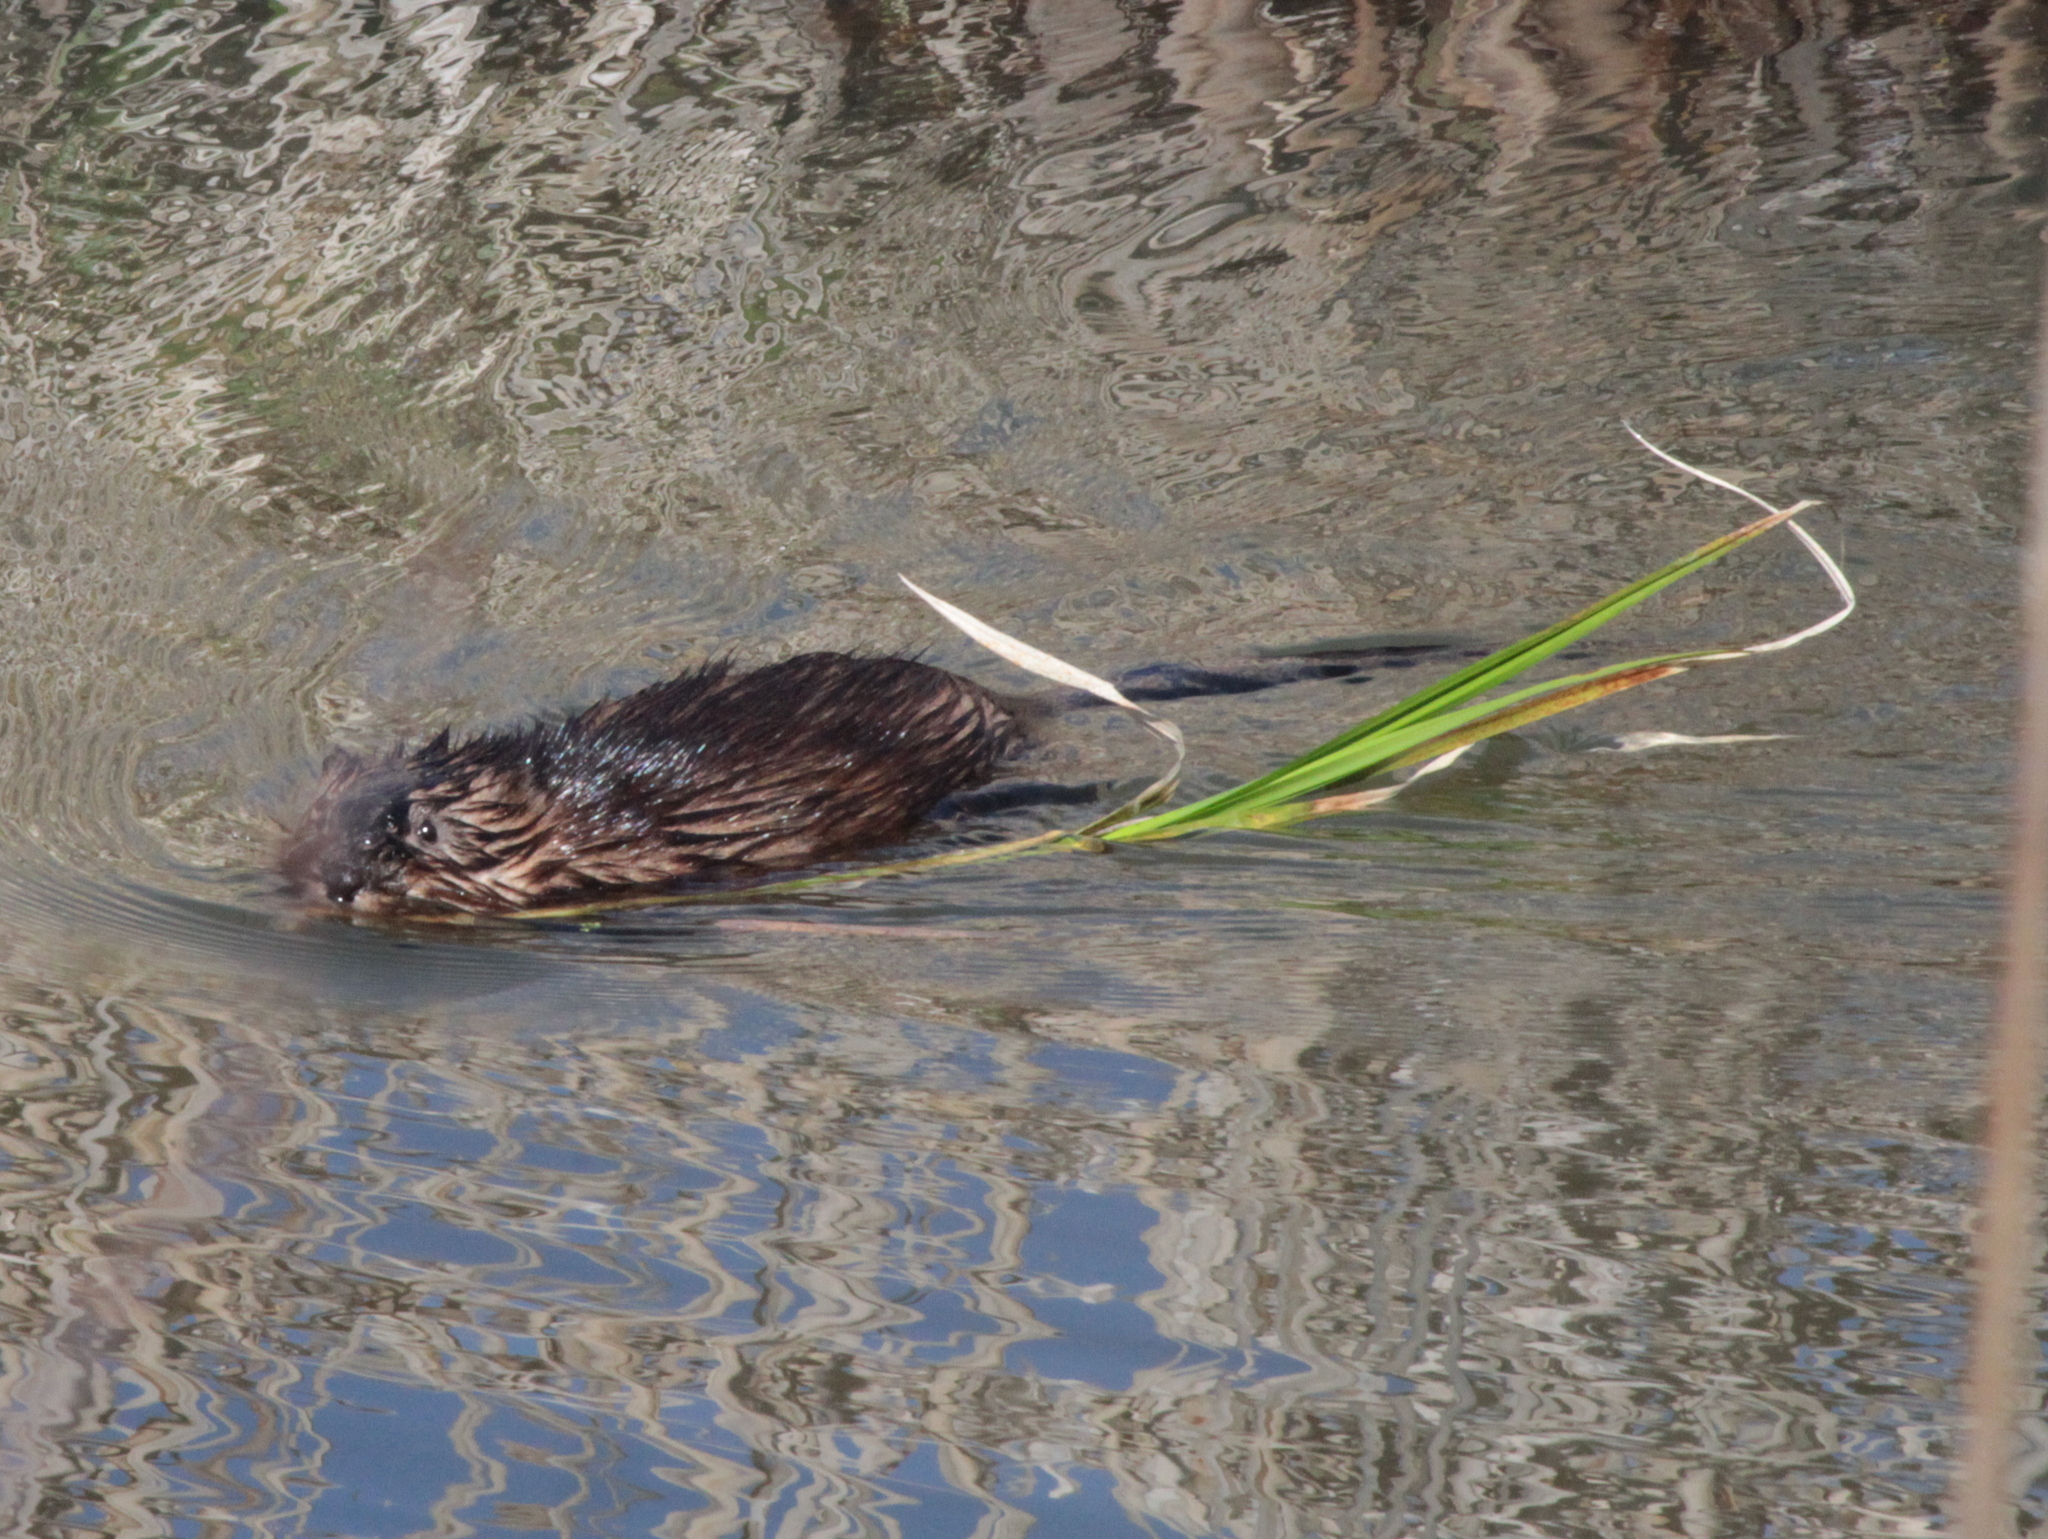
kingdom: Animalia
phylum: Chordata
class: Mammalia
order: Rodentia
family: Cricetidae
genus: Ondatra
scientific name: Ondatra zibethicus
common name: Muskrat
